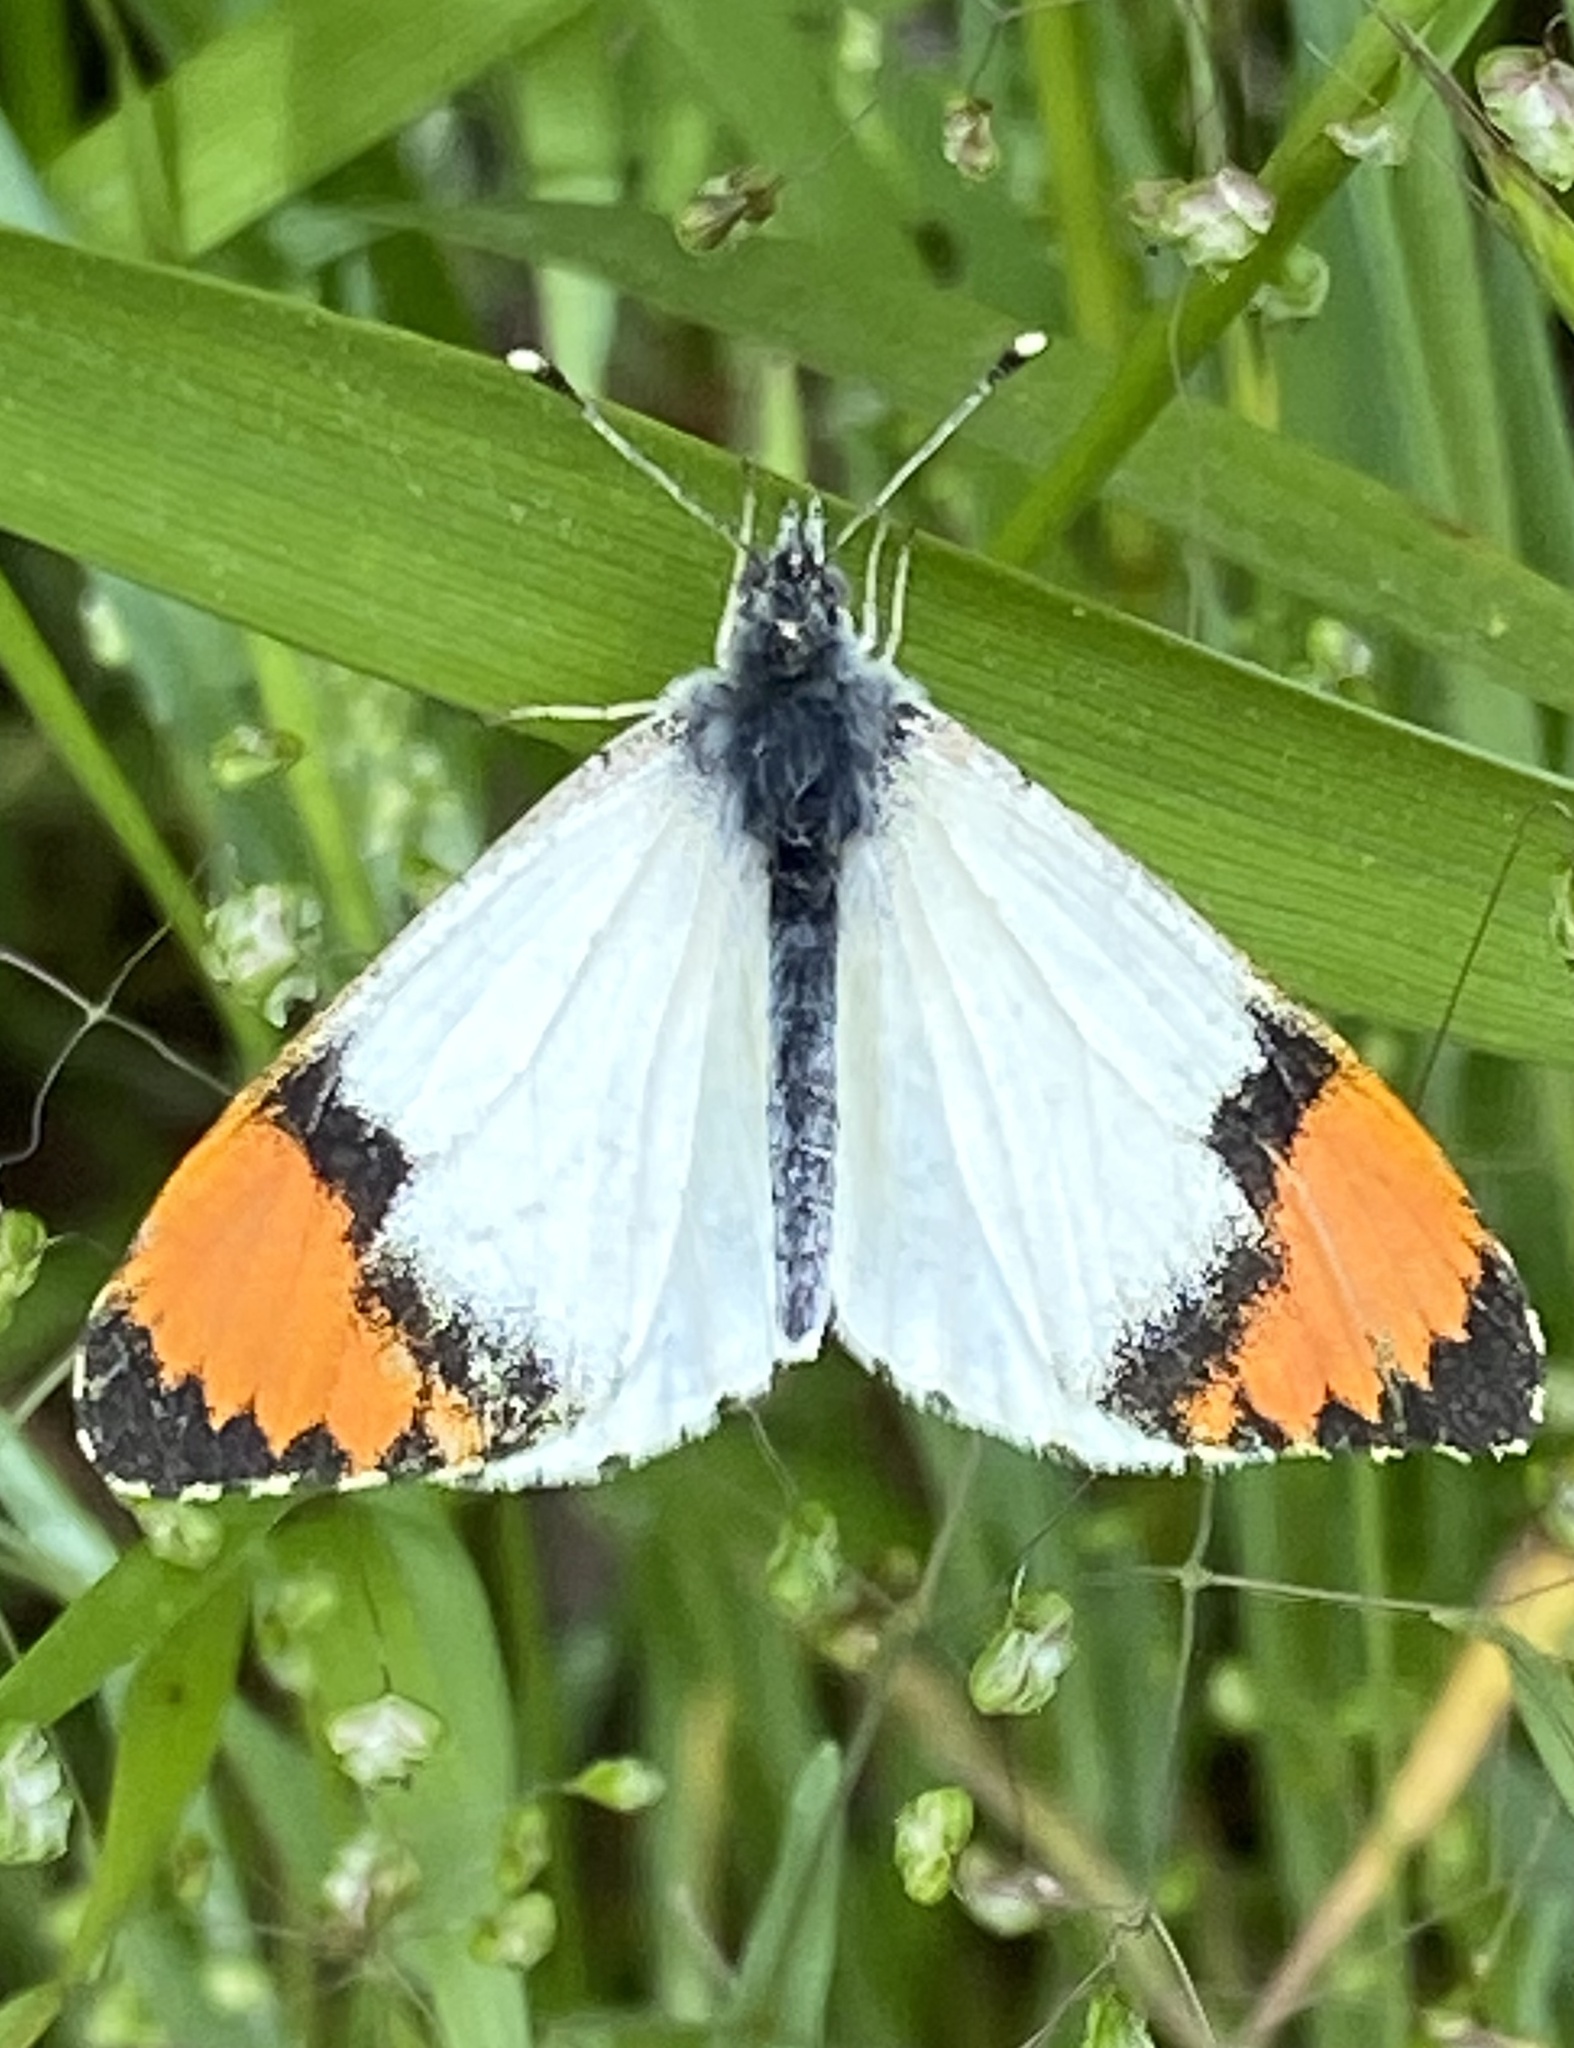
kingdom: Animalia
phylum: Arthropoda
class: Insecta
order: Lepidoptera
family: Pieridae
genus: Anthocharis
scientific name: Anthocharis sara
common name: Sara's orangetip
